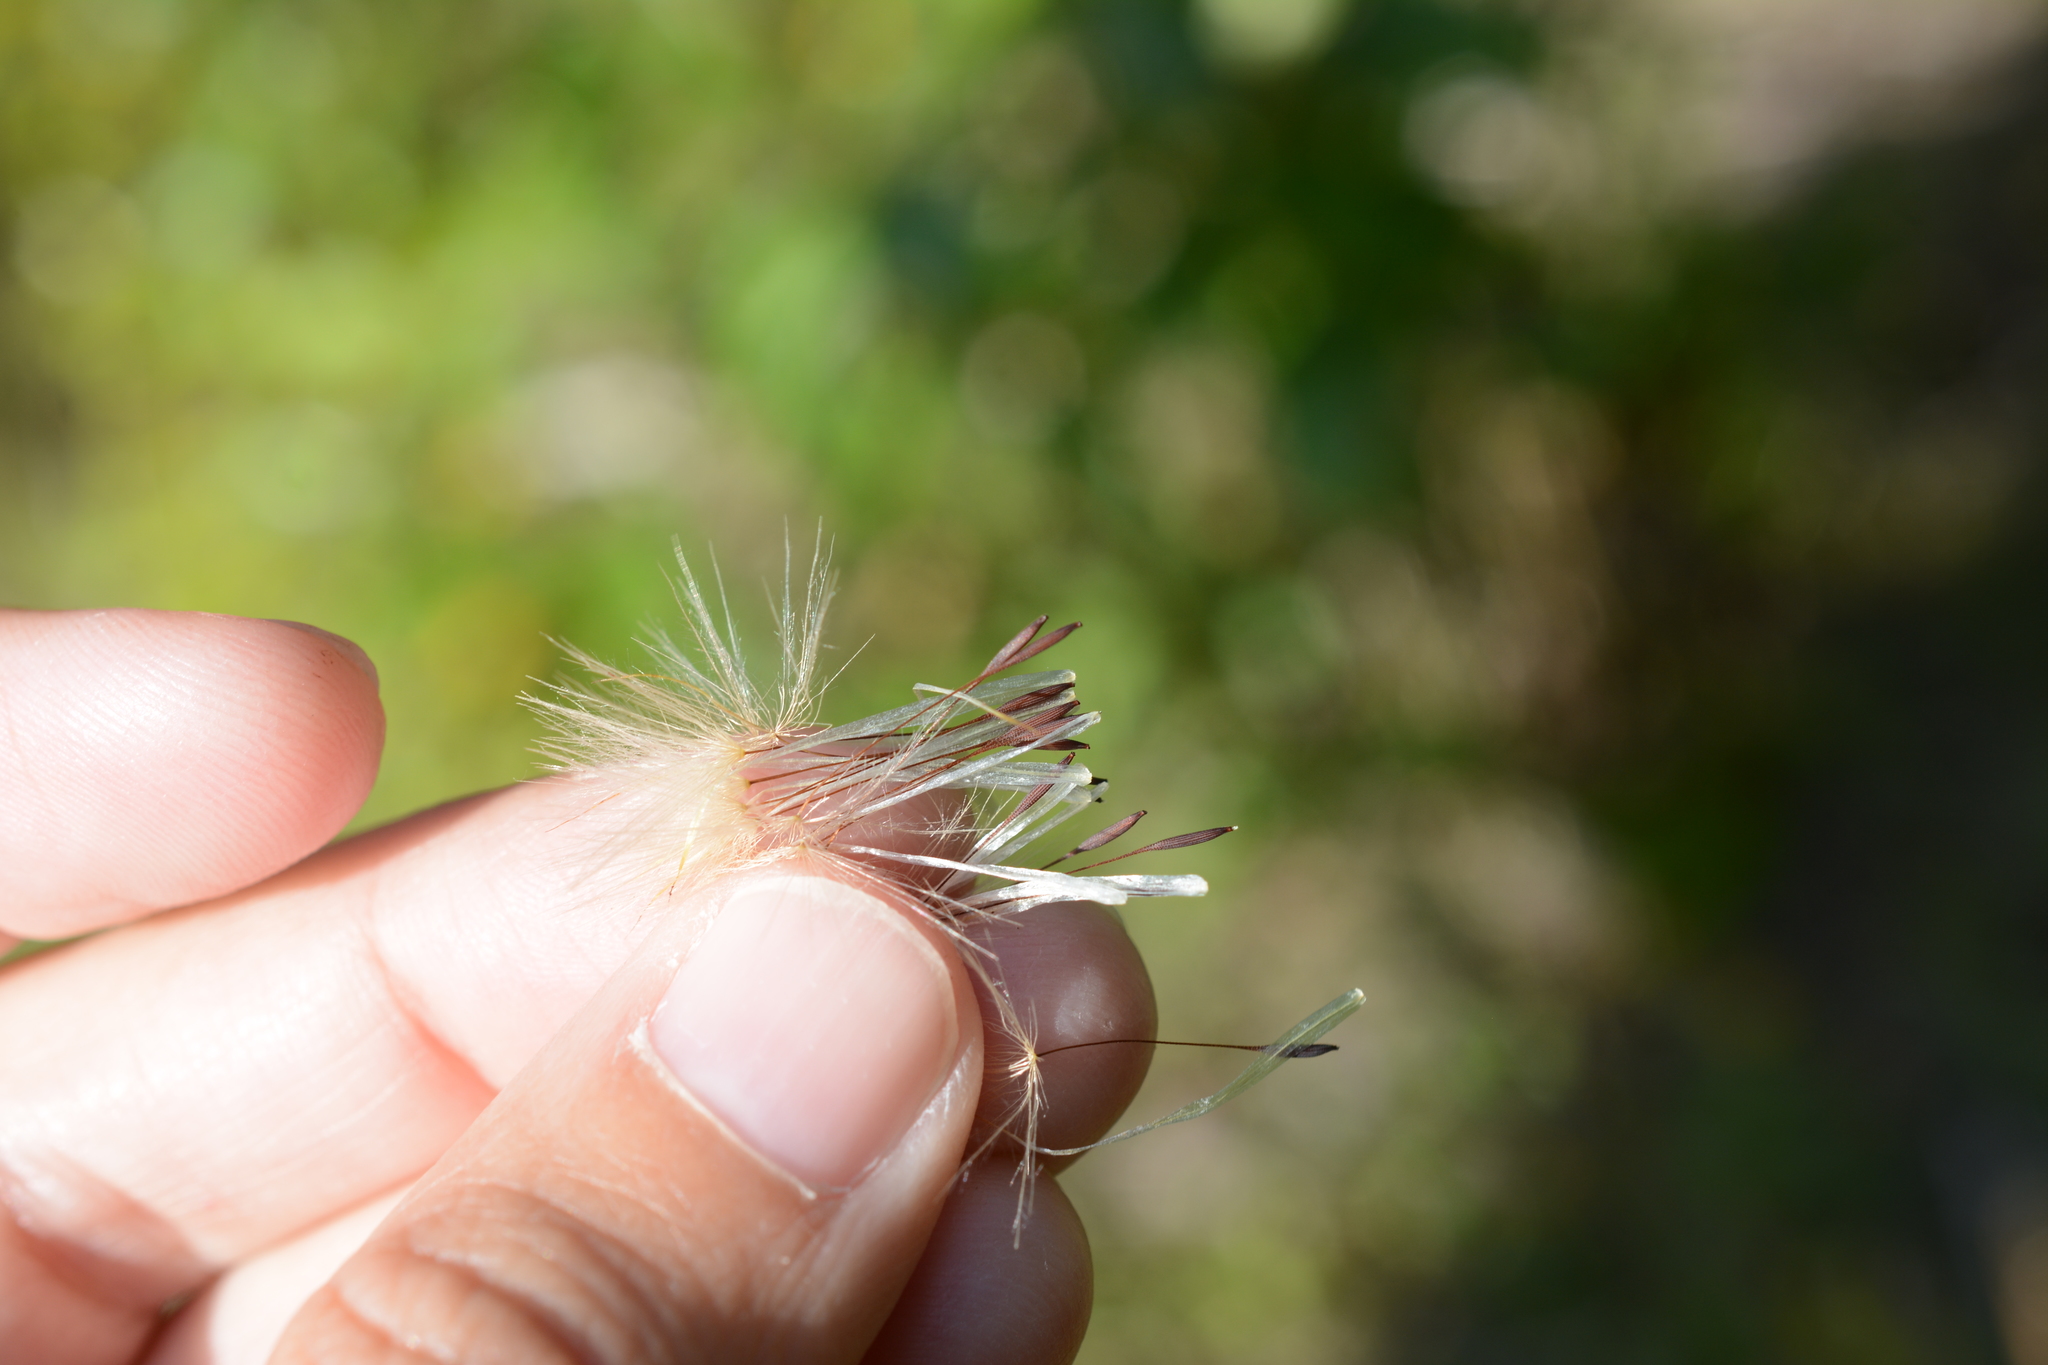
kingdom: Plantae
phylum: Tracheophyta
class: Magnoliopsida
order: Asterales
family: Asteraceae
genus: Hypochaeris
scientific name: Hypochaeris radicata
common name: Flatweed
